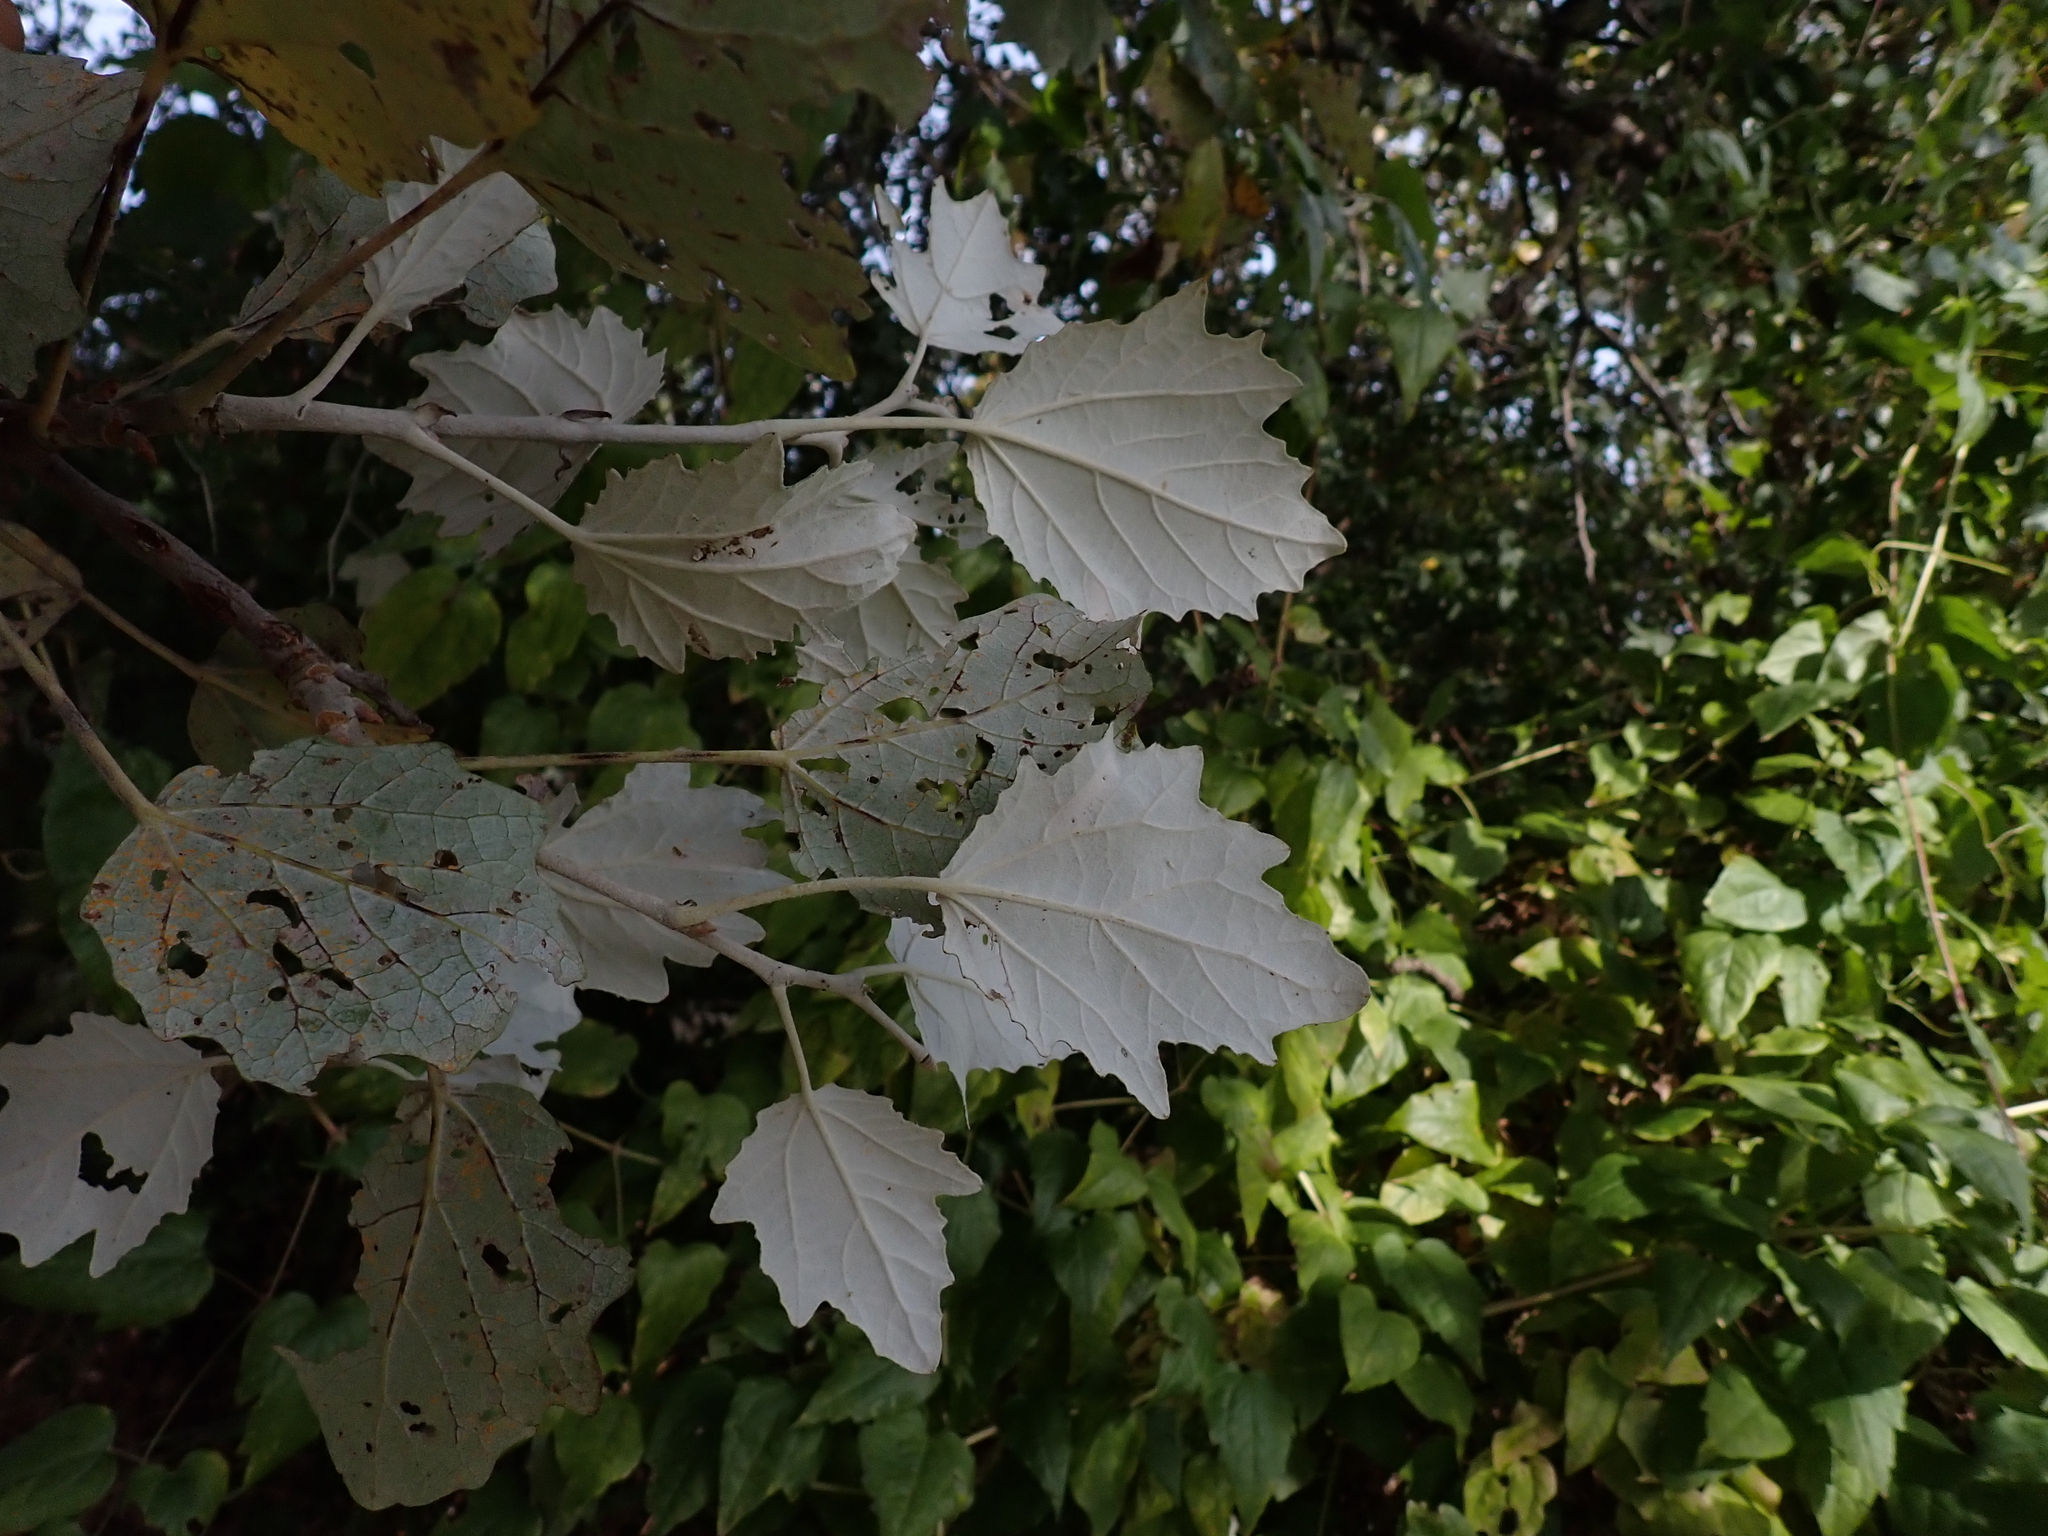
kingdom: Plantae
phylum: Tracheophyta
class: Magnoliopsida
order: Malpighiales
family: Salicaceae
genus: Populus
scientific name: Populus alba
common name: White poplar
